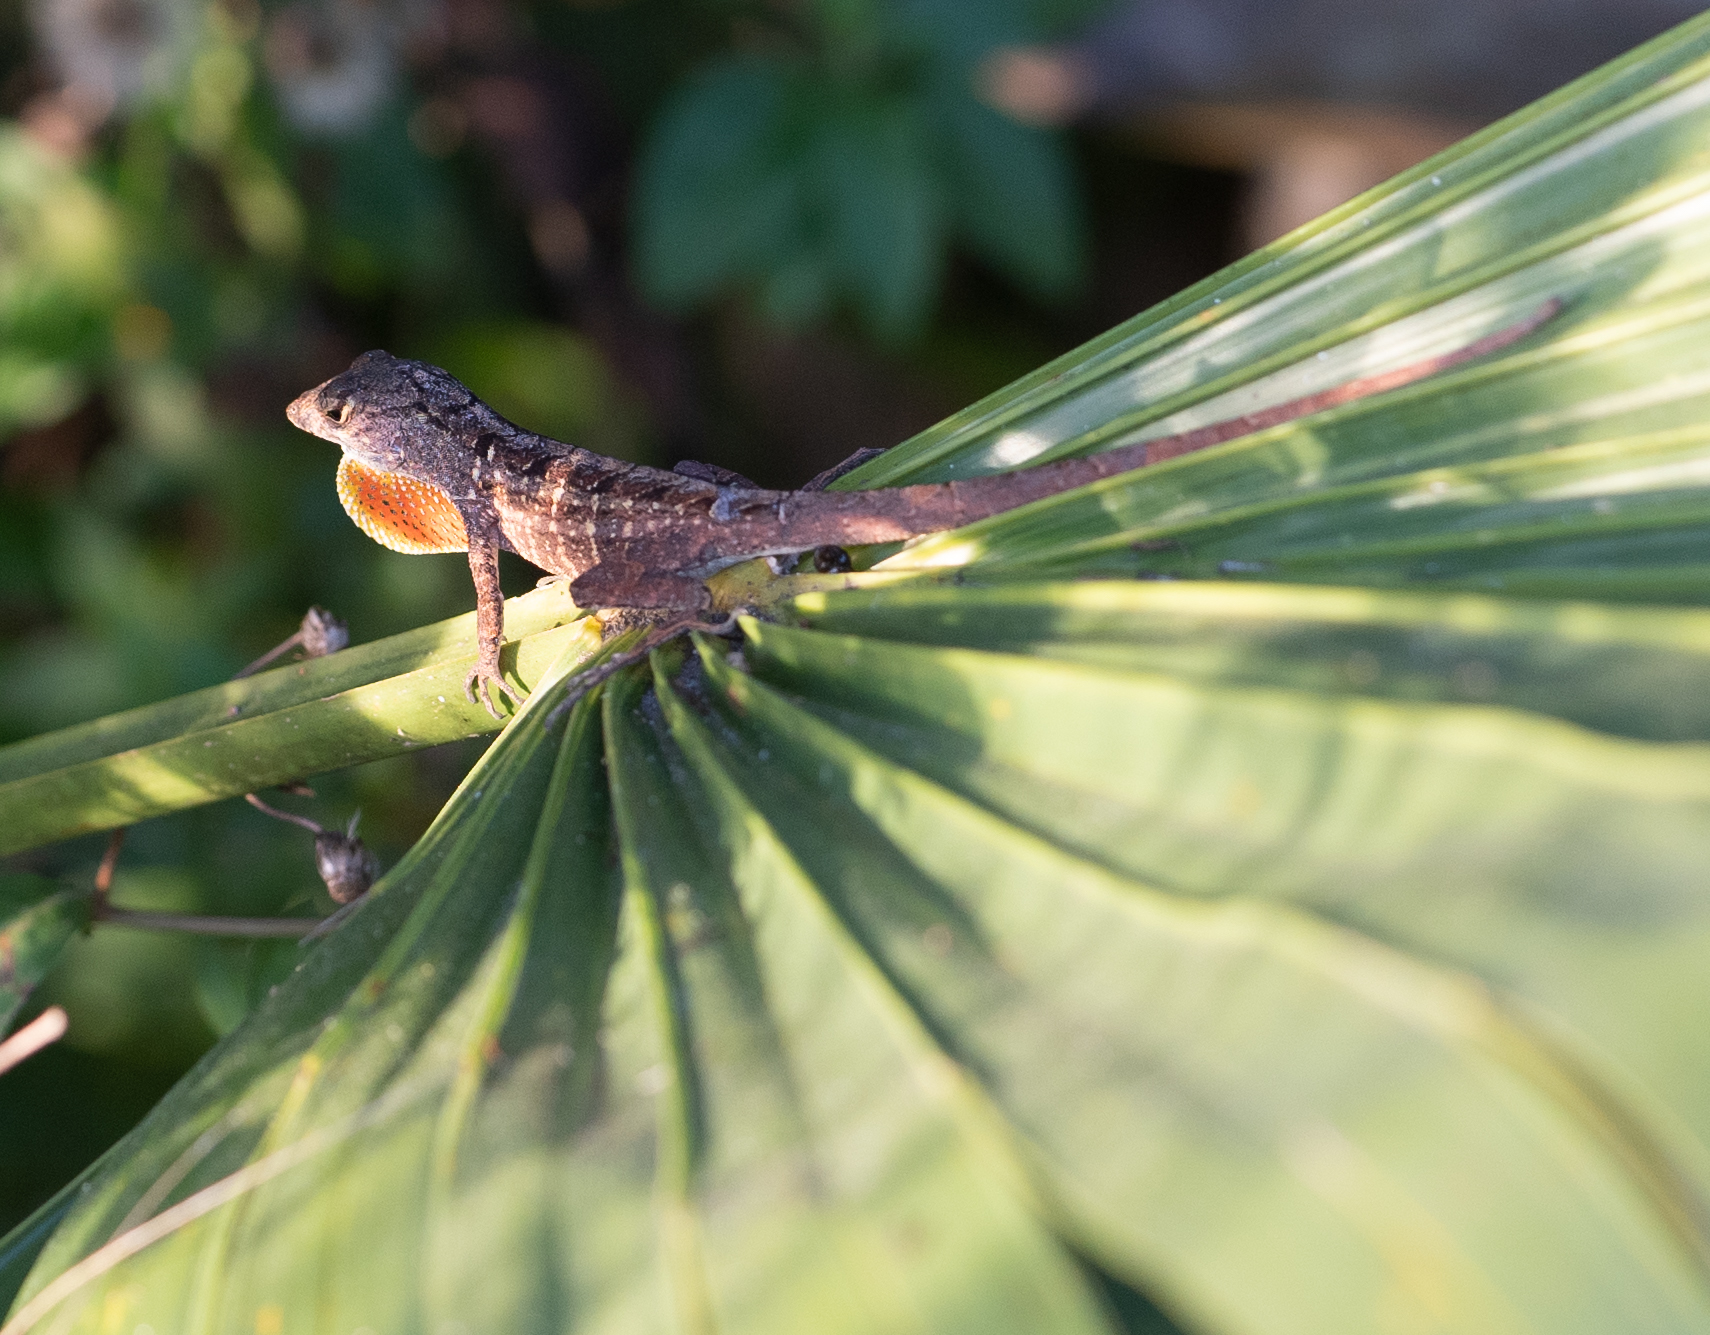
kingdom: Animalia
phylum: Chordata
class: Squamata
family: Dactyloidae
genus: Anolis
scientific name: Anolis sagrei
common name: Brown anole
